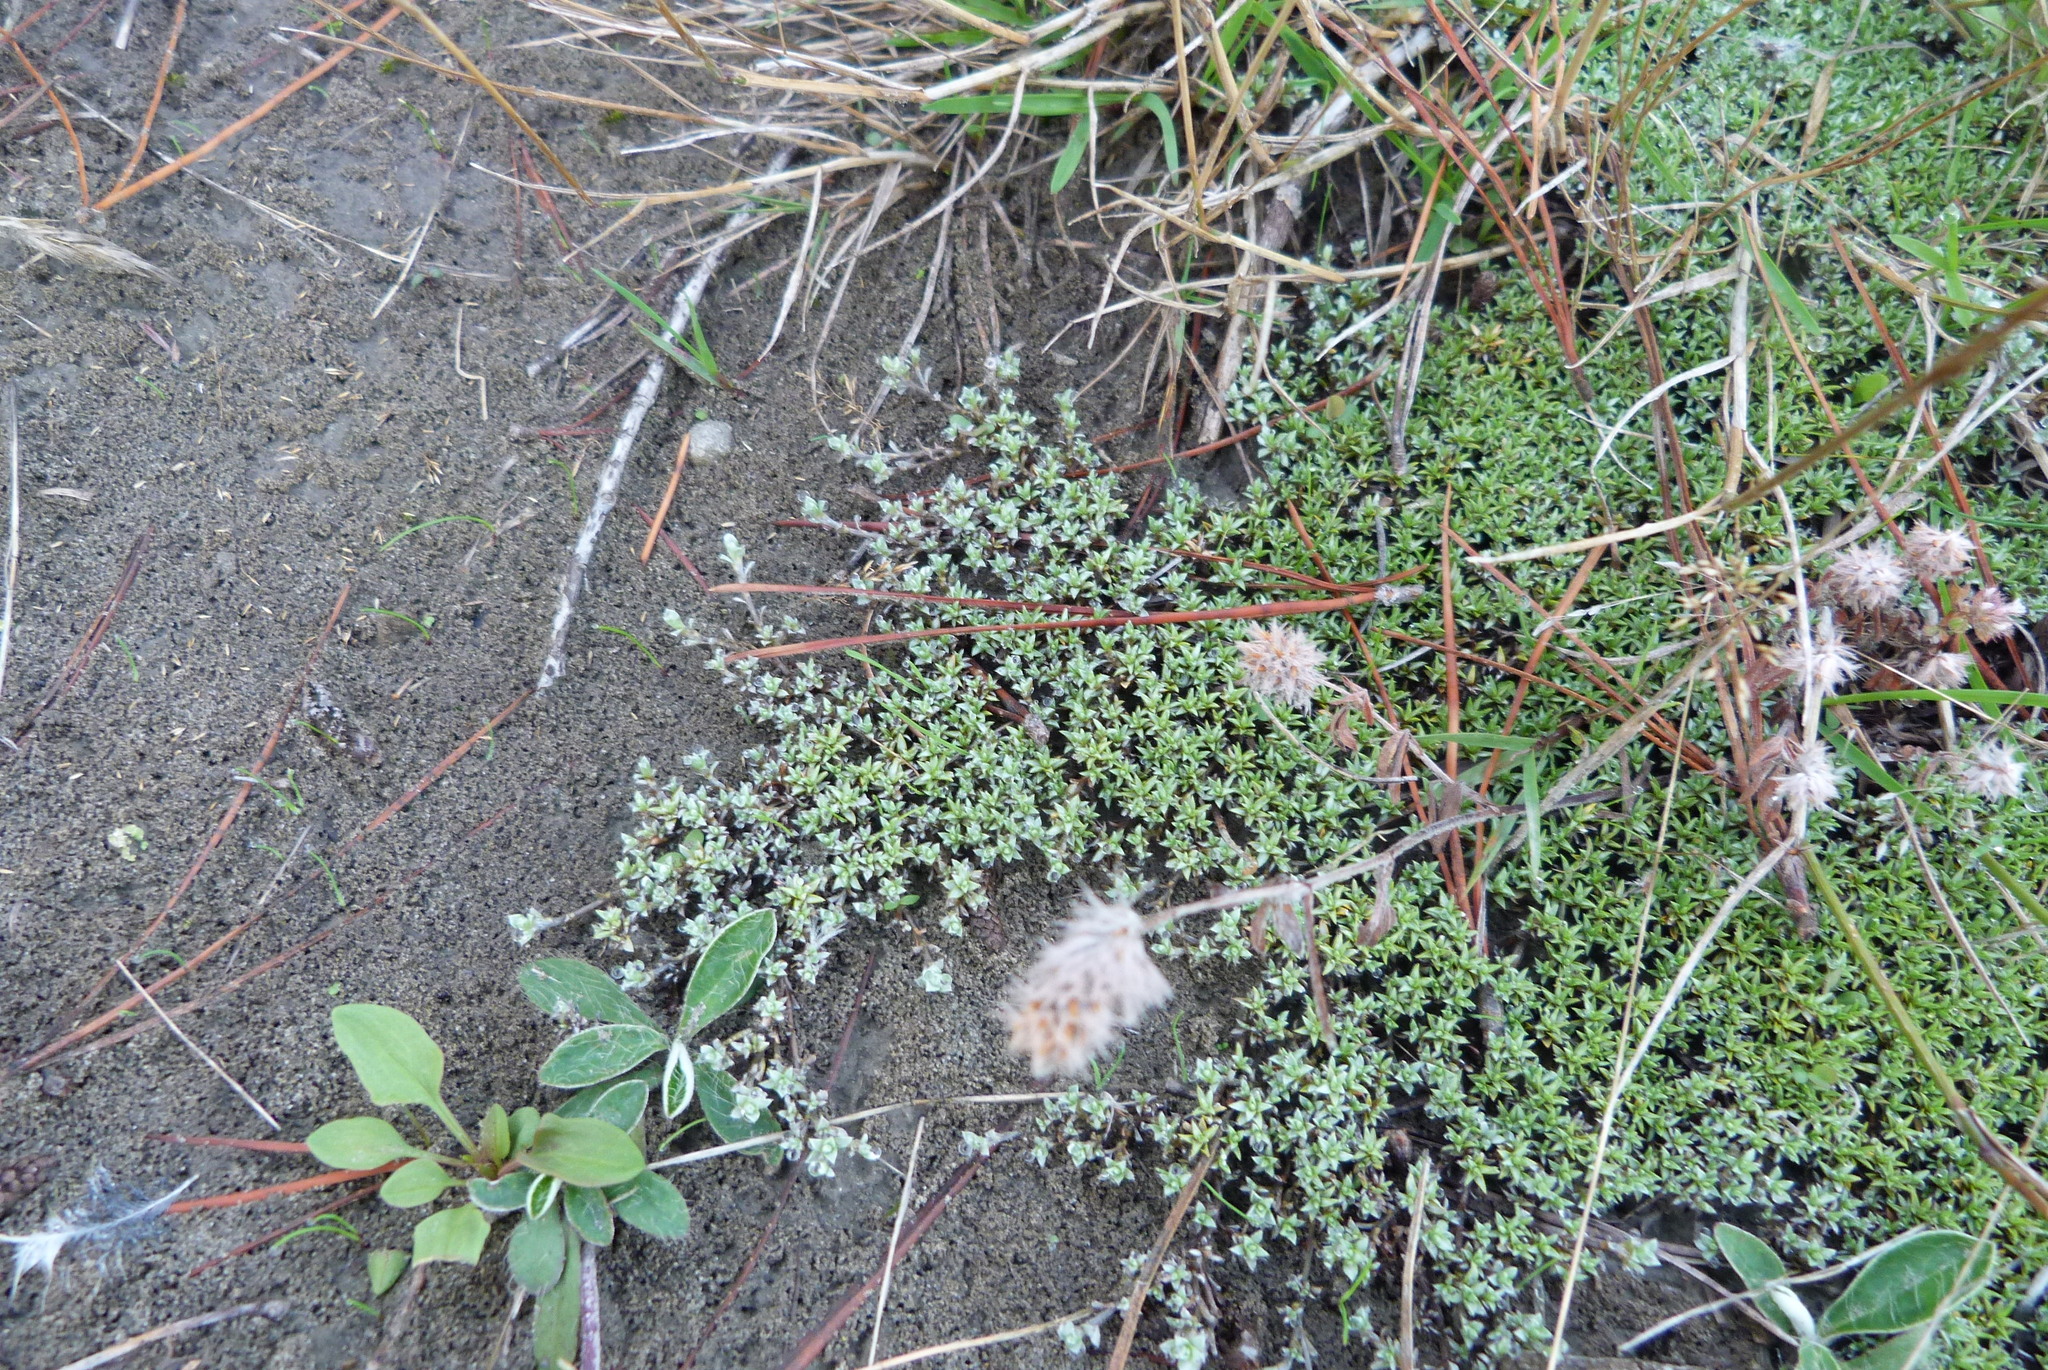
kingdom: Plantae
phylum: Tracheophyta
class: Magnoliopsida
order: Asterales
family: Asteraceae
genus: Raoulia
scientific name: Raoulia tenuicaulis
